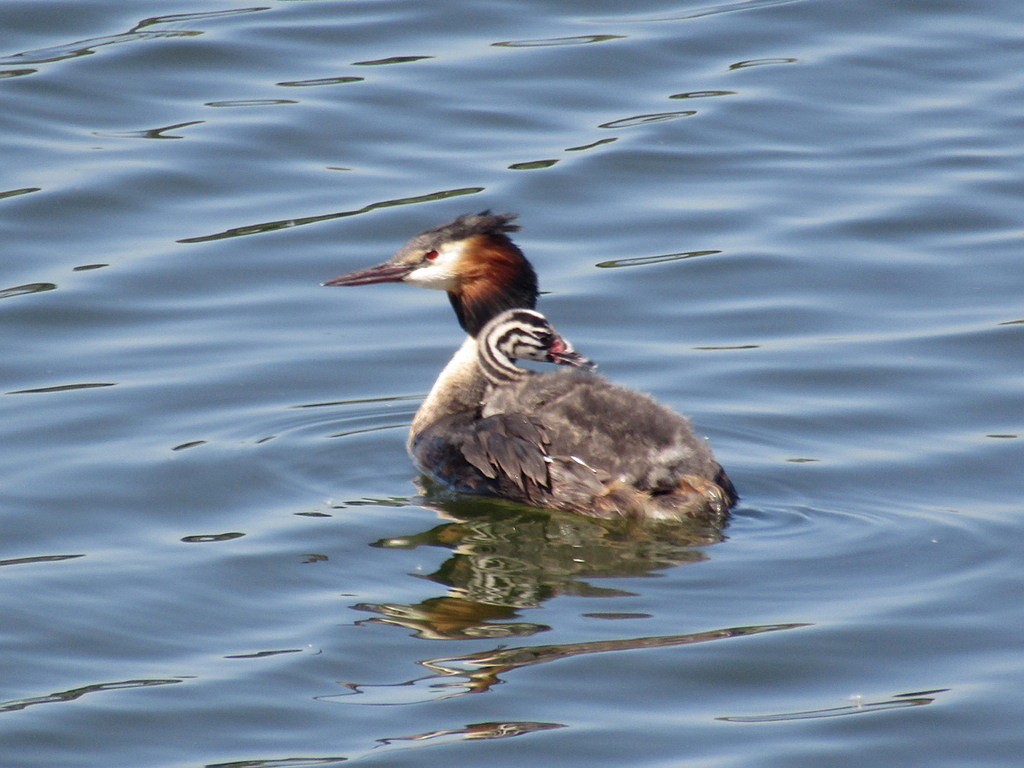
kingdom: Animalia
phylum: Chordata
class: Aves
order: Podicipediformes
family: Podicipedidae
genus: Podiceps
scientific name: Podiceps cristatus
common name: Great crested grebe
